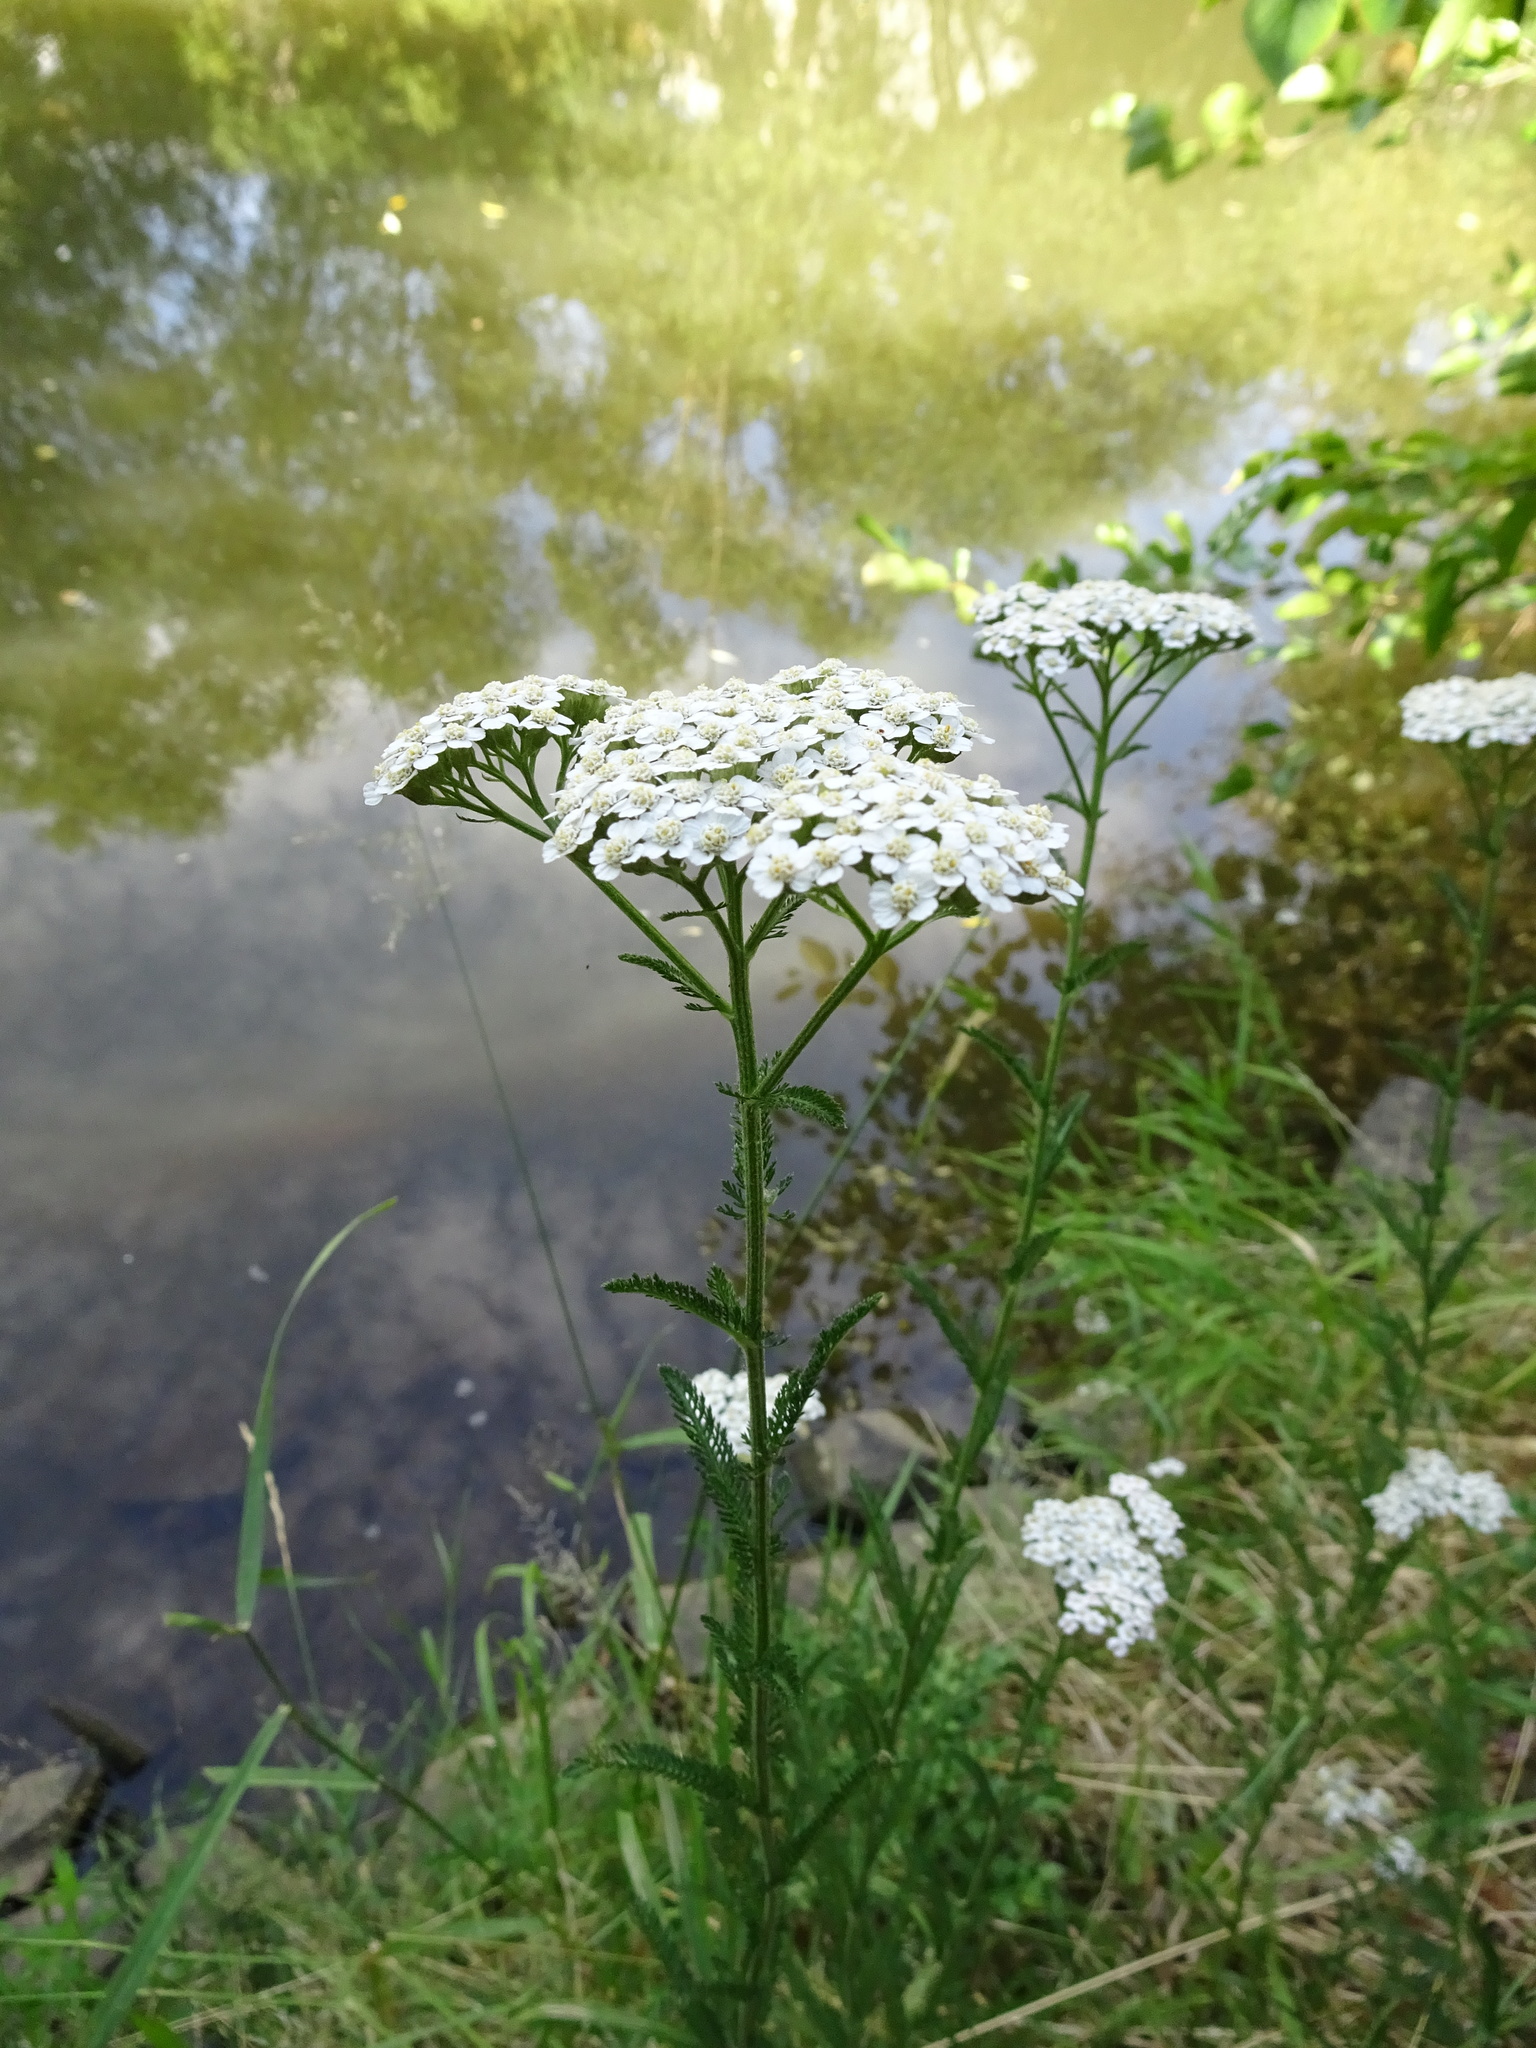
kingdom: Plantae
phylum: Tracheophyta
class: Magnoliopsida
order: Asterales
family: Asteraceae
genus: Achillea
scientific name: Achillea millefolium
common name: Yarrow
